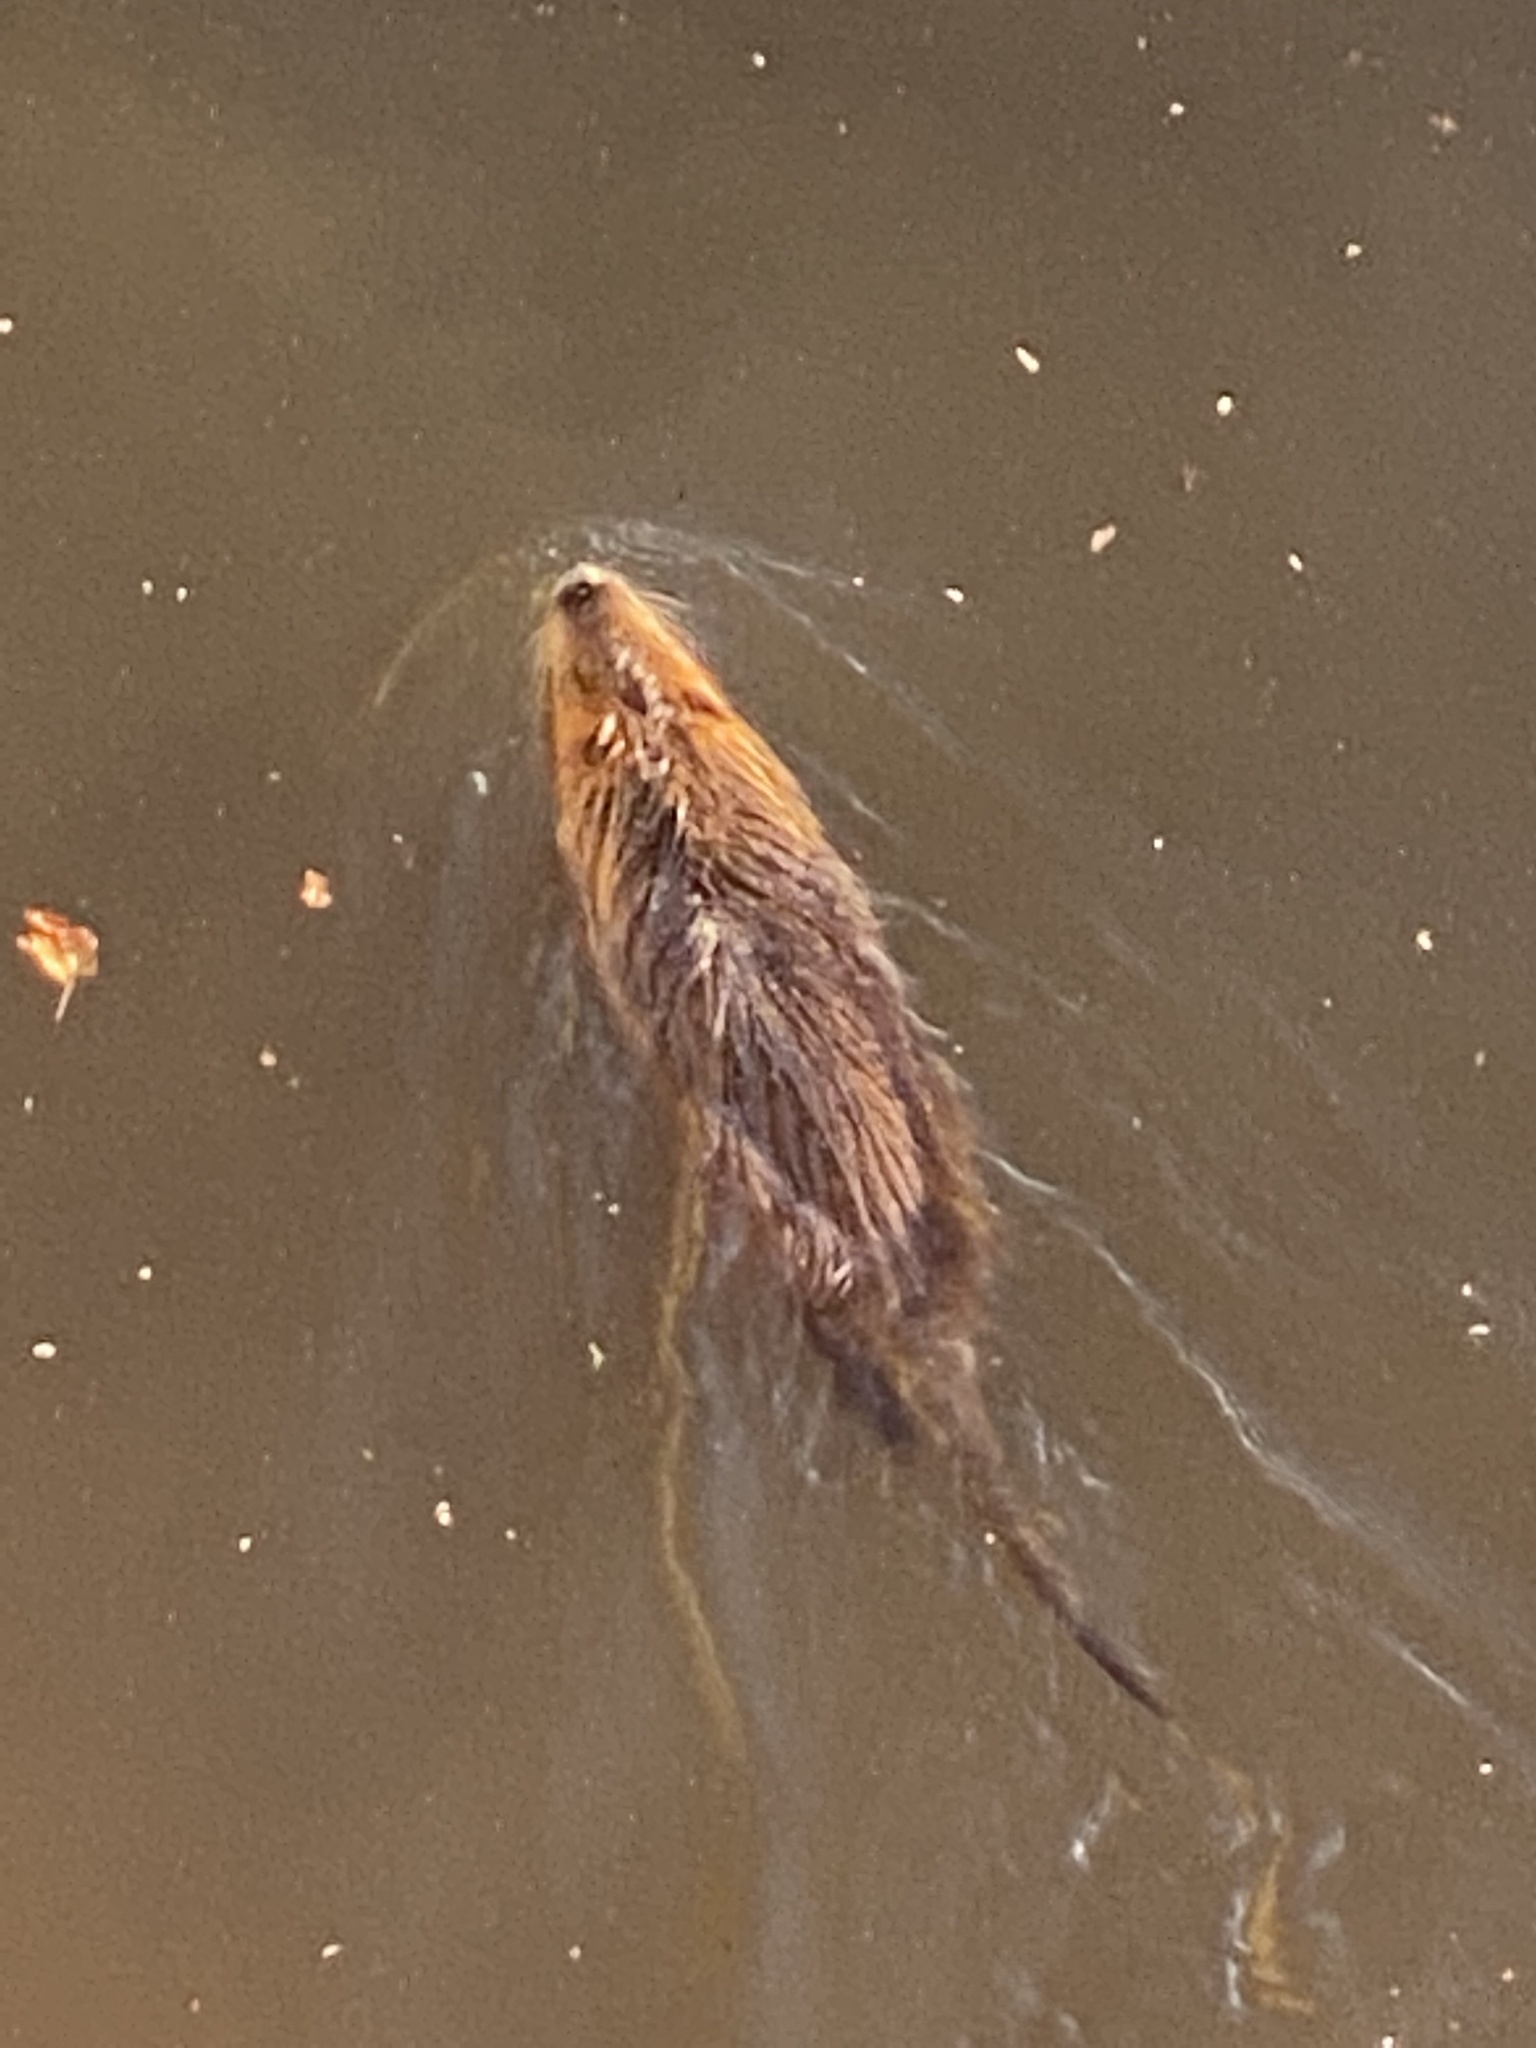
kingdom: Animalia
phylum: Chordata
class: Mammalia
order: Rodentia
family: Myocastoridae
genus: Myocastor
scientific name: Myocastor coypus
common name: Coypu
